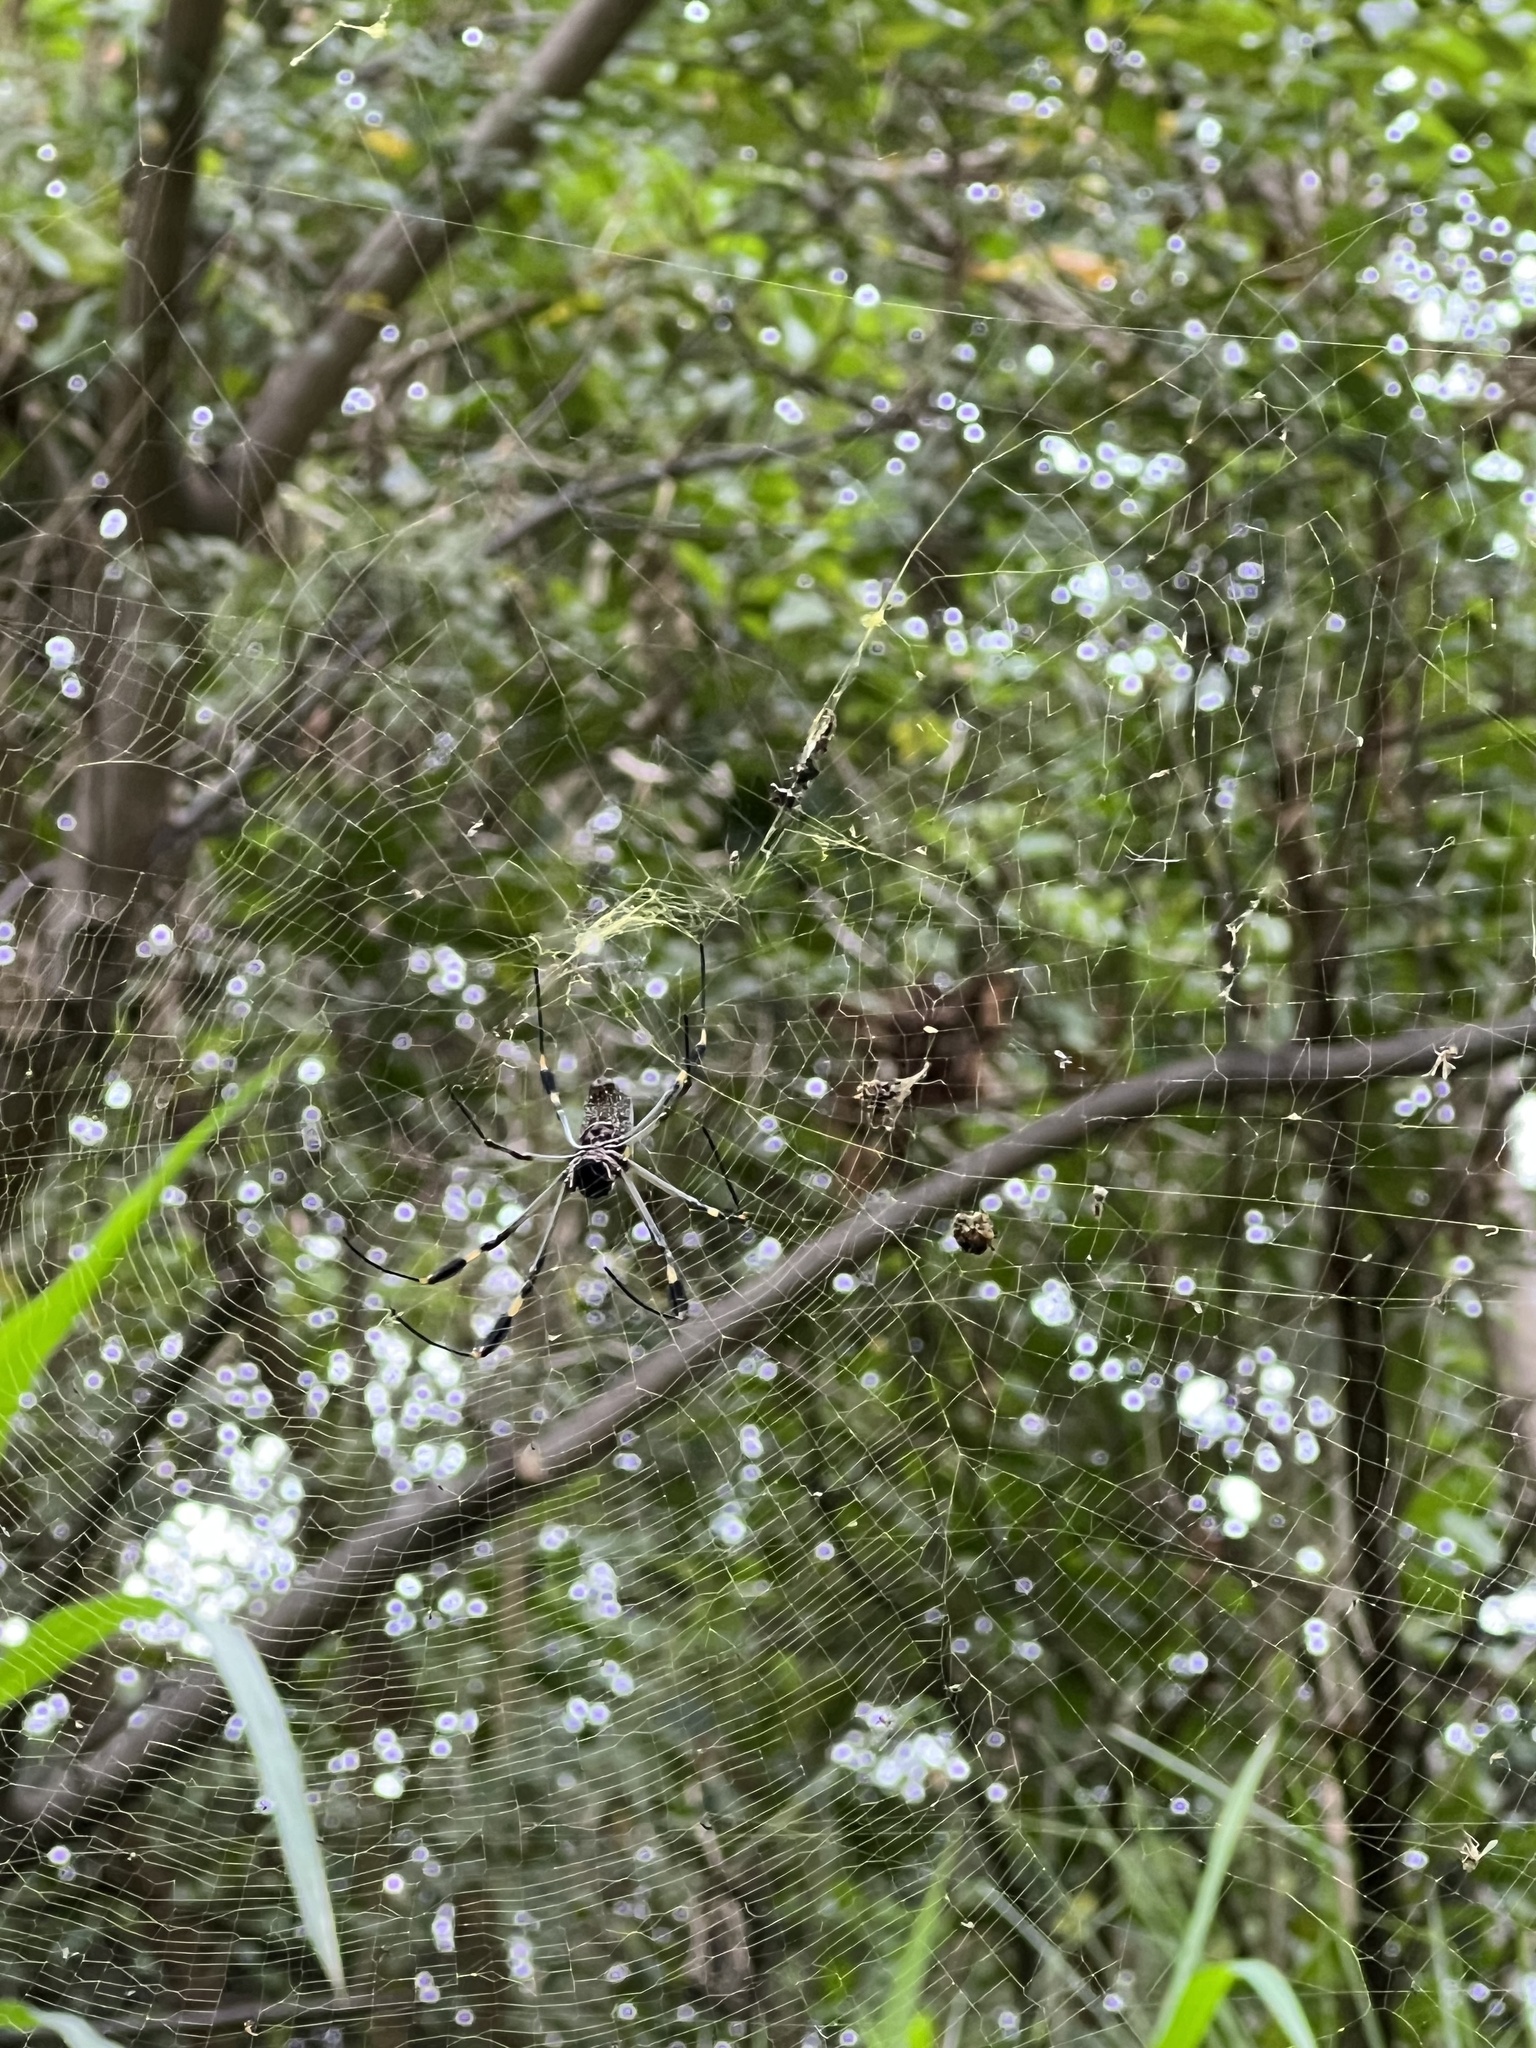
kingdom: Animalia
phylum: Arthropoda
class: Arachnida
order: Araneae
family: Araneidae
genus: Trichonephila
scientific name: Trichonephila clavipes
